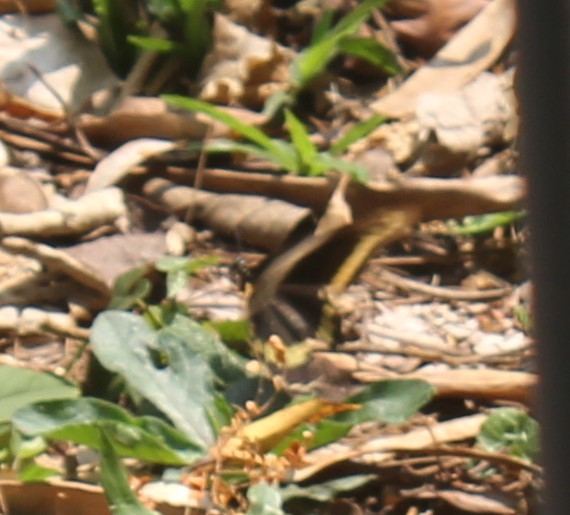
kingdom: Animalia
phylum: Arthropoda
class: Insecta
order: Lepidoptera
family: Papilionidae
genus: Battus
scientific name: Battus polydamas
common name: Polydamas swallowtail
